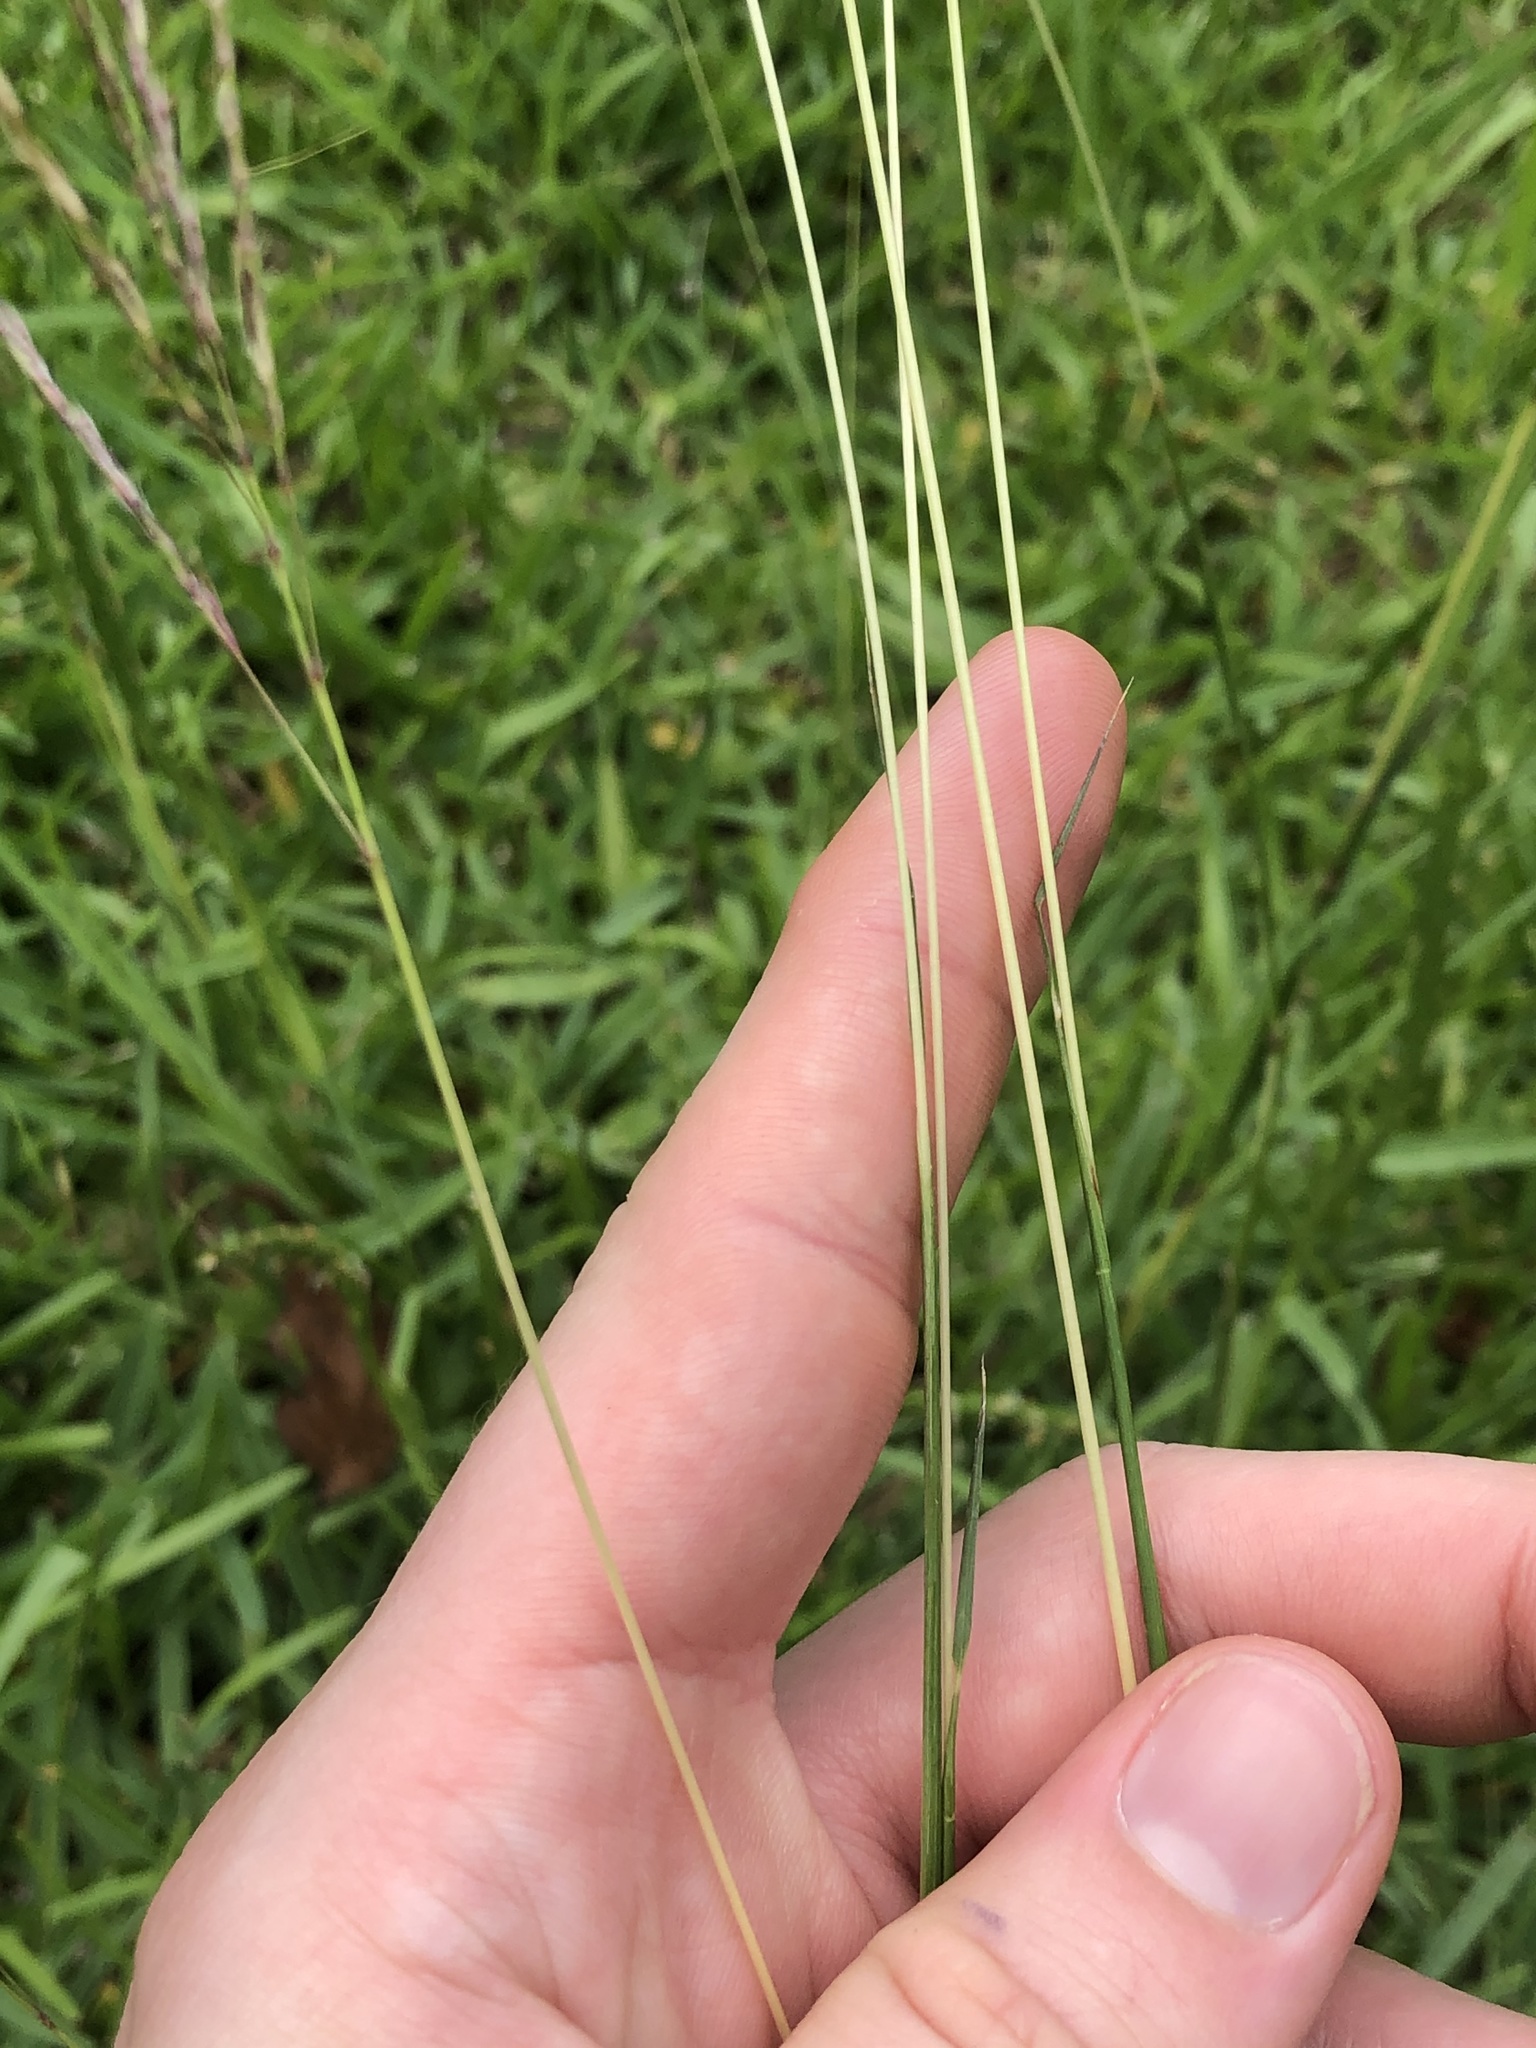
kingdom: Plantae
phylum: Tracheophyta
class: Liliopsida
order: Poales
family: Poaceae
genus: Bothriochloa
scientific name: Bothriochloa ischaemum
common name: Yellow bluestem
